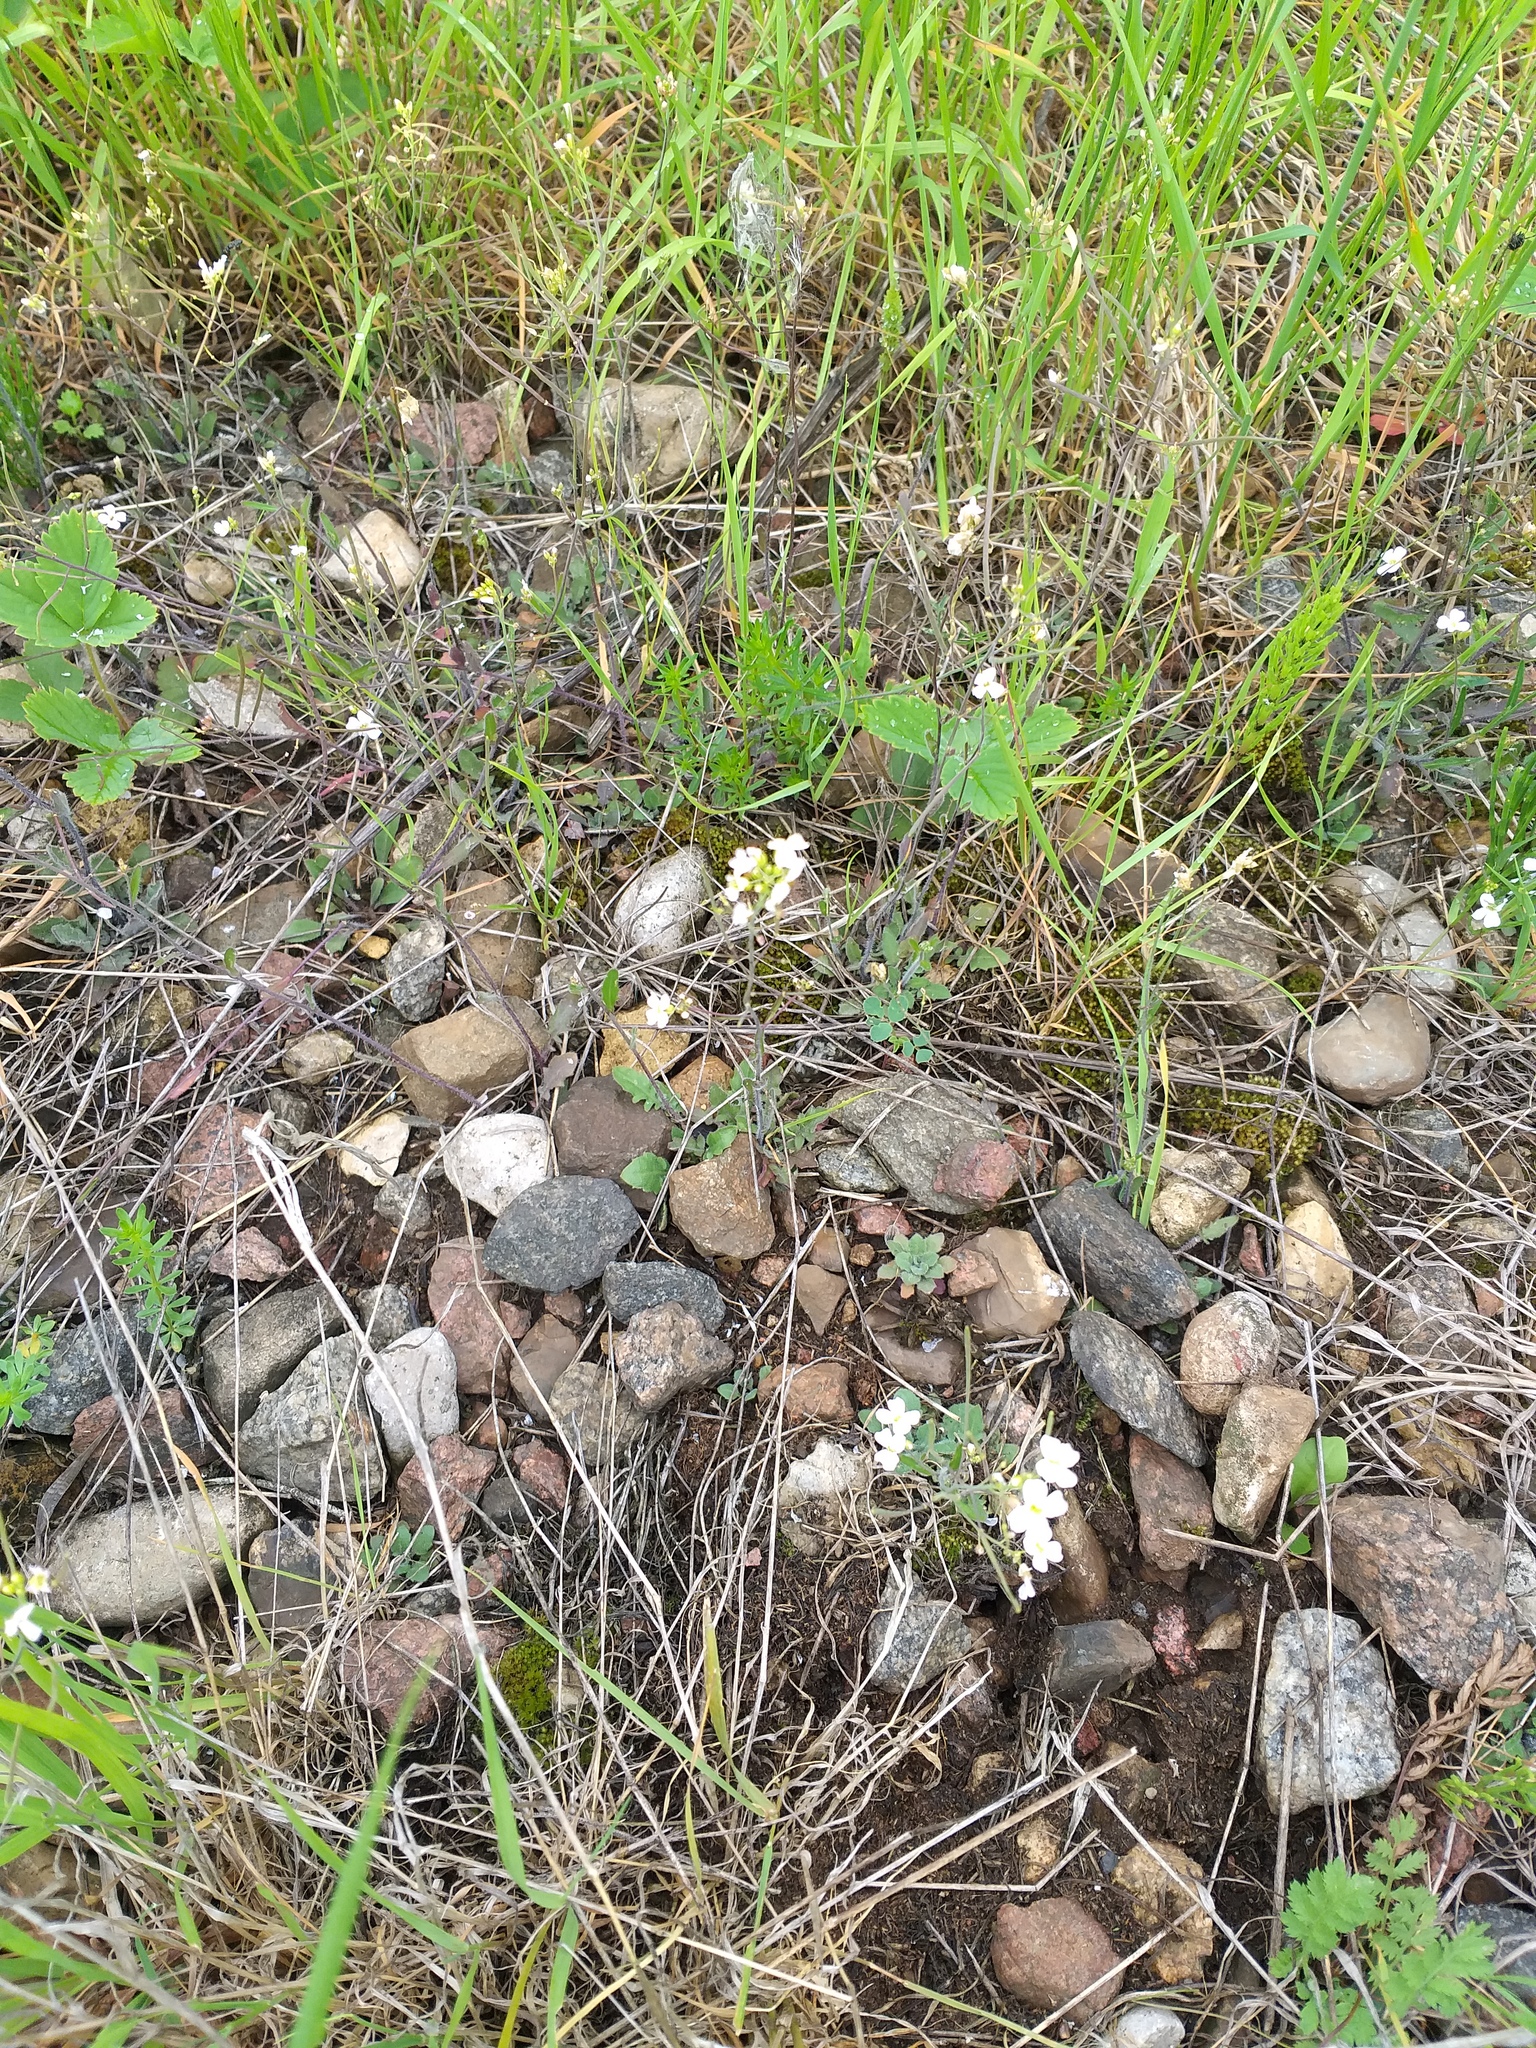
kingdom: Plantae
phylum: Tracheophyta
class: Magnoliopsida
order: Brassicales
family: Brassicaceae
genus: Arabidopsis
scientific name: Arabidopsis arenosa
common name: Sand rock-cress
